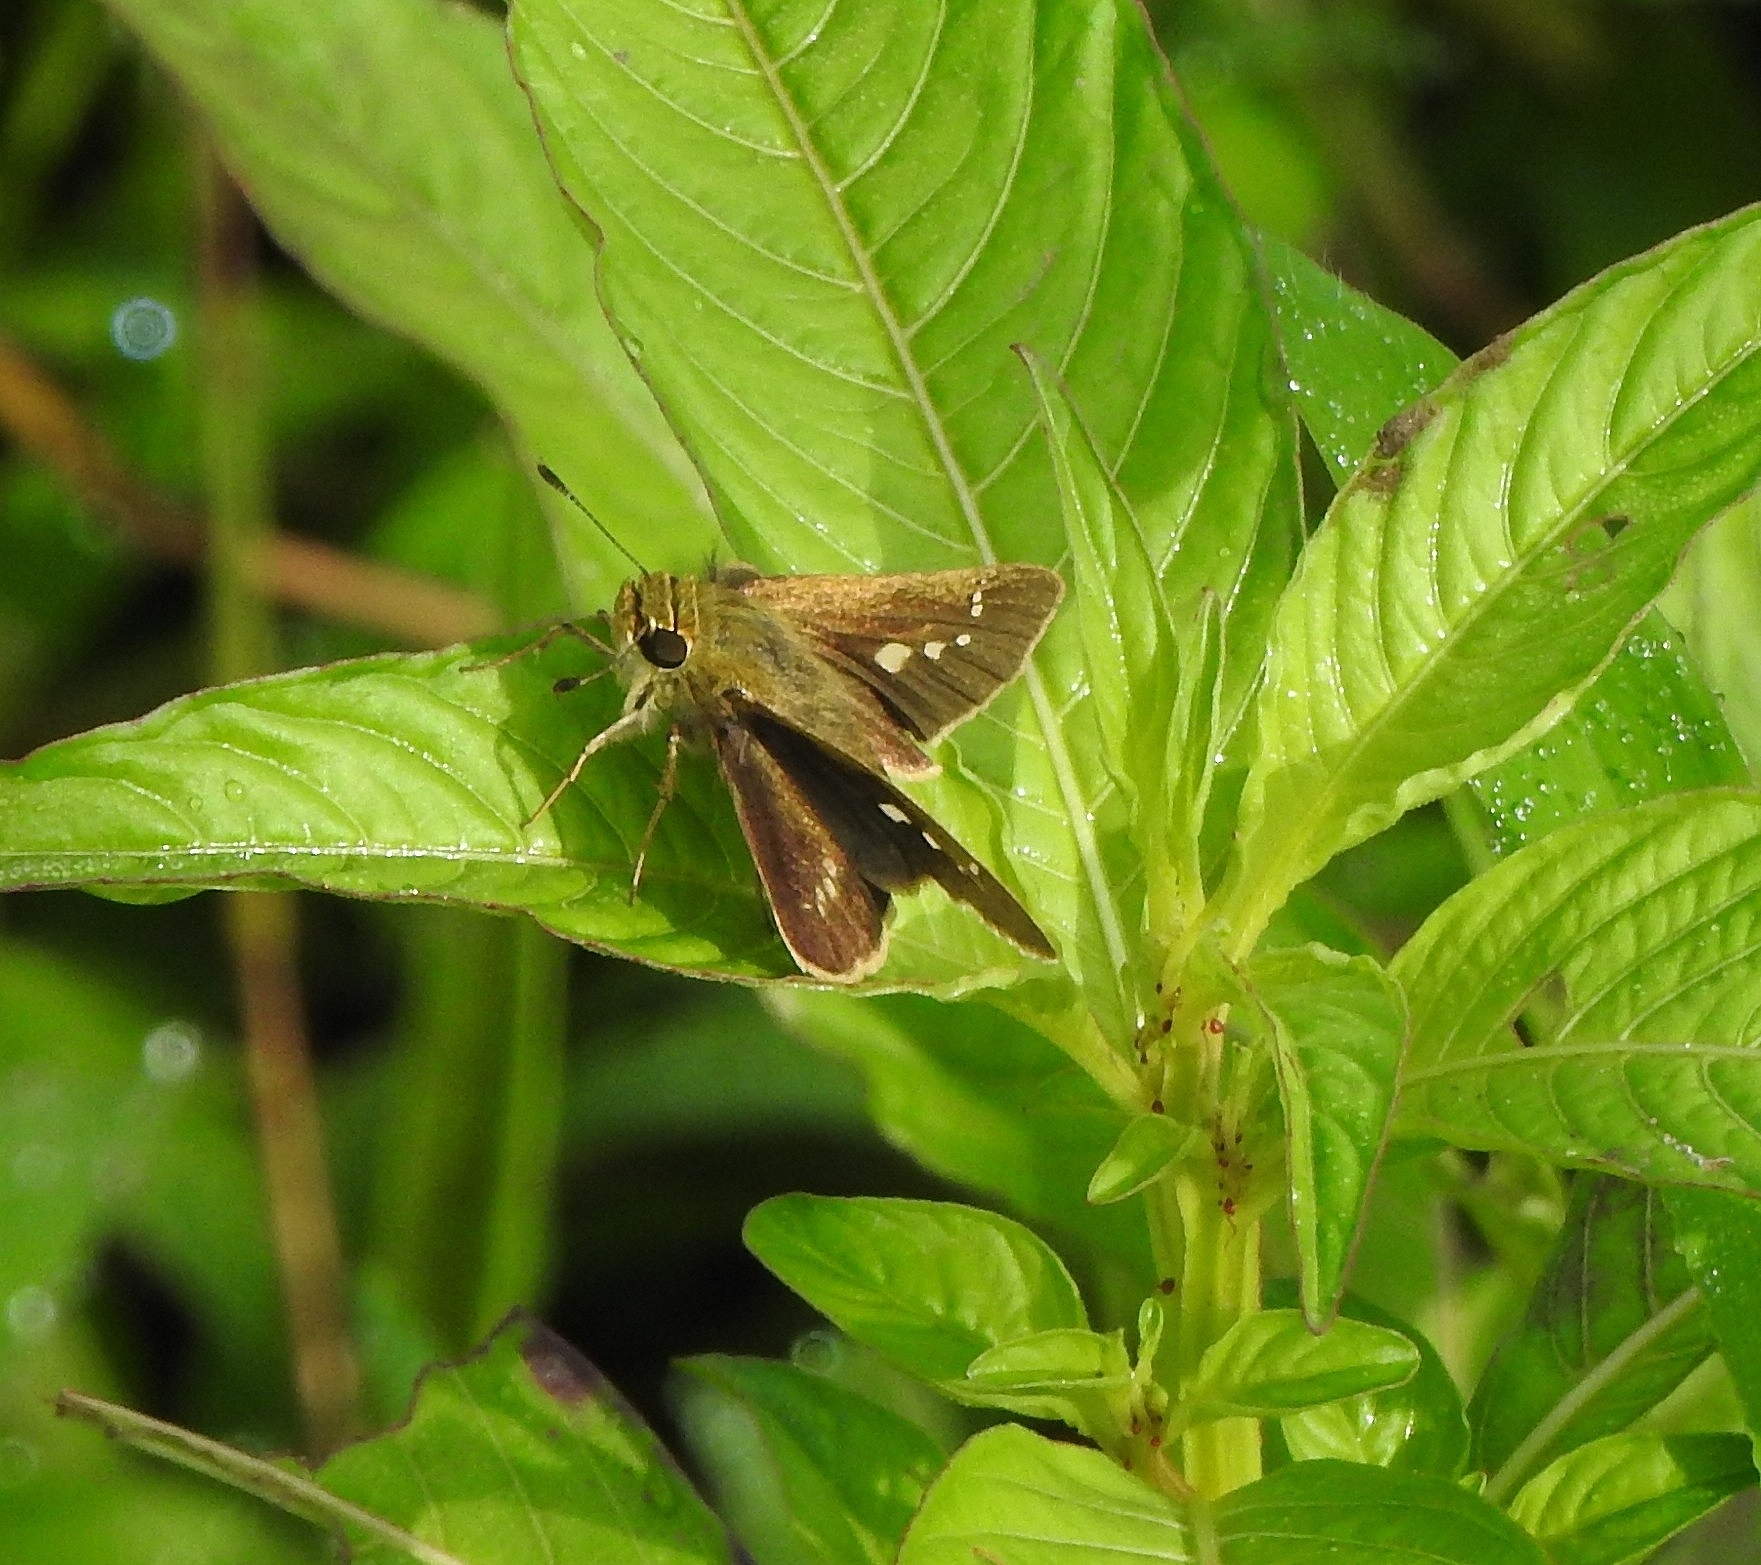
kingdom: Animalia
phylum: Arthropoda
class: Insecta
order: Lepidoptera
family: Hesperiidae
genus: Parnara
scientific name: Parnara naso
